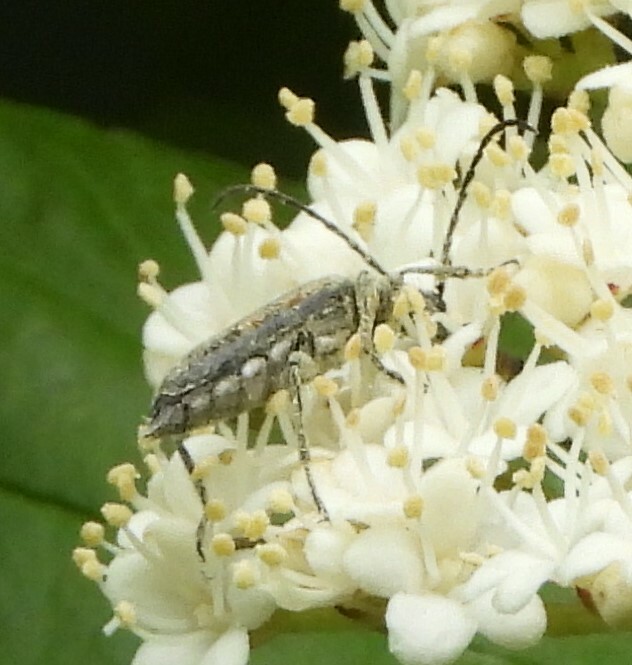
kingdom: Animalia
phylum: Arthropoda
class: Insecta
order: Coleoptera
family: Cerambycidae
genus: Strangalepta
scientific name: Strangalepta abbreviata
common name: Strangalepta flower longhorn beetle
